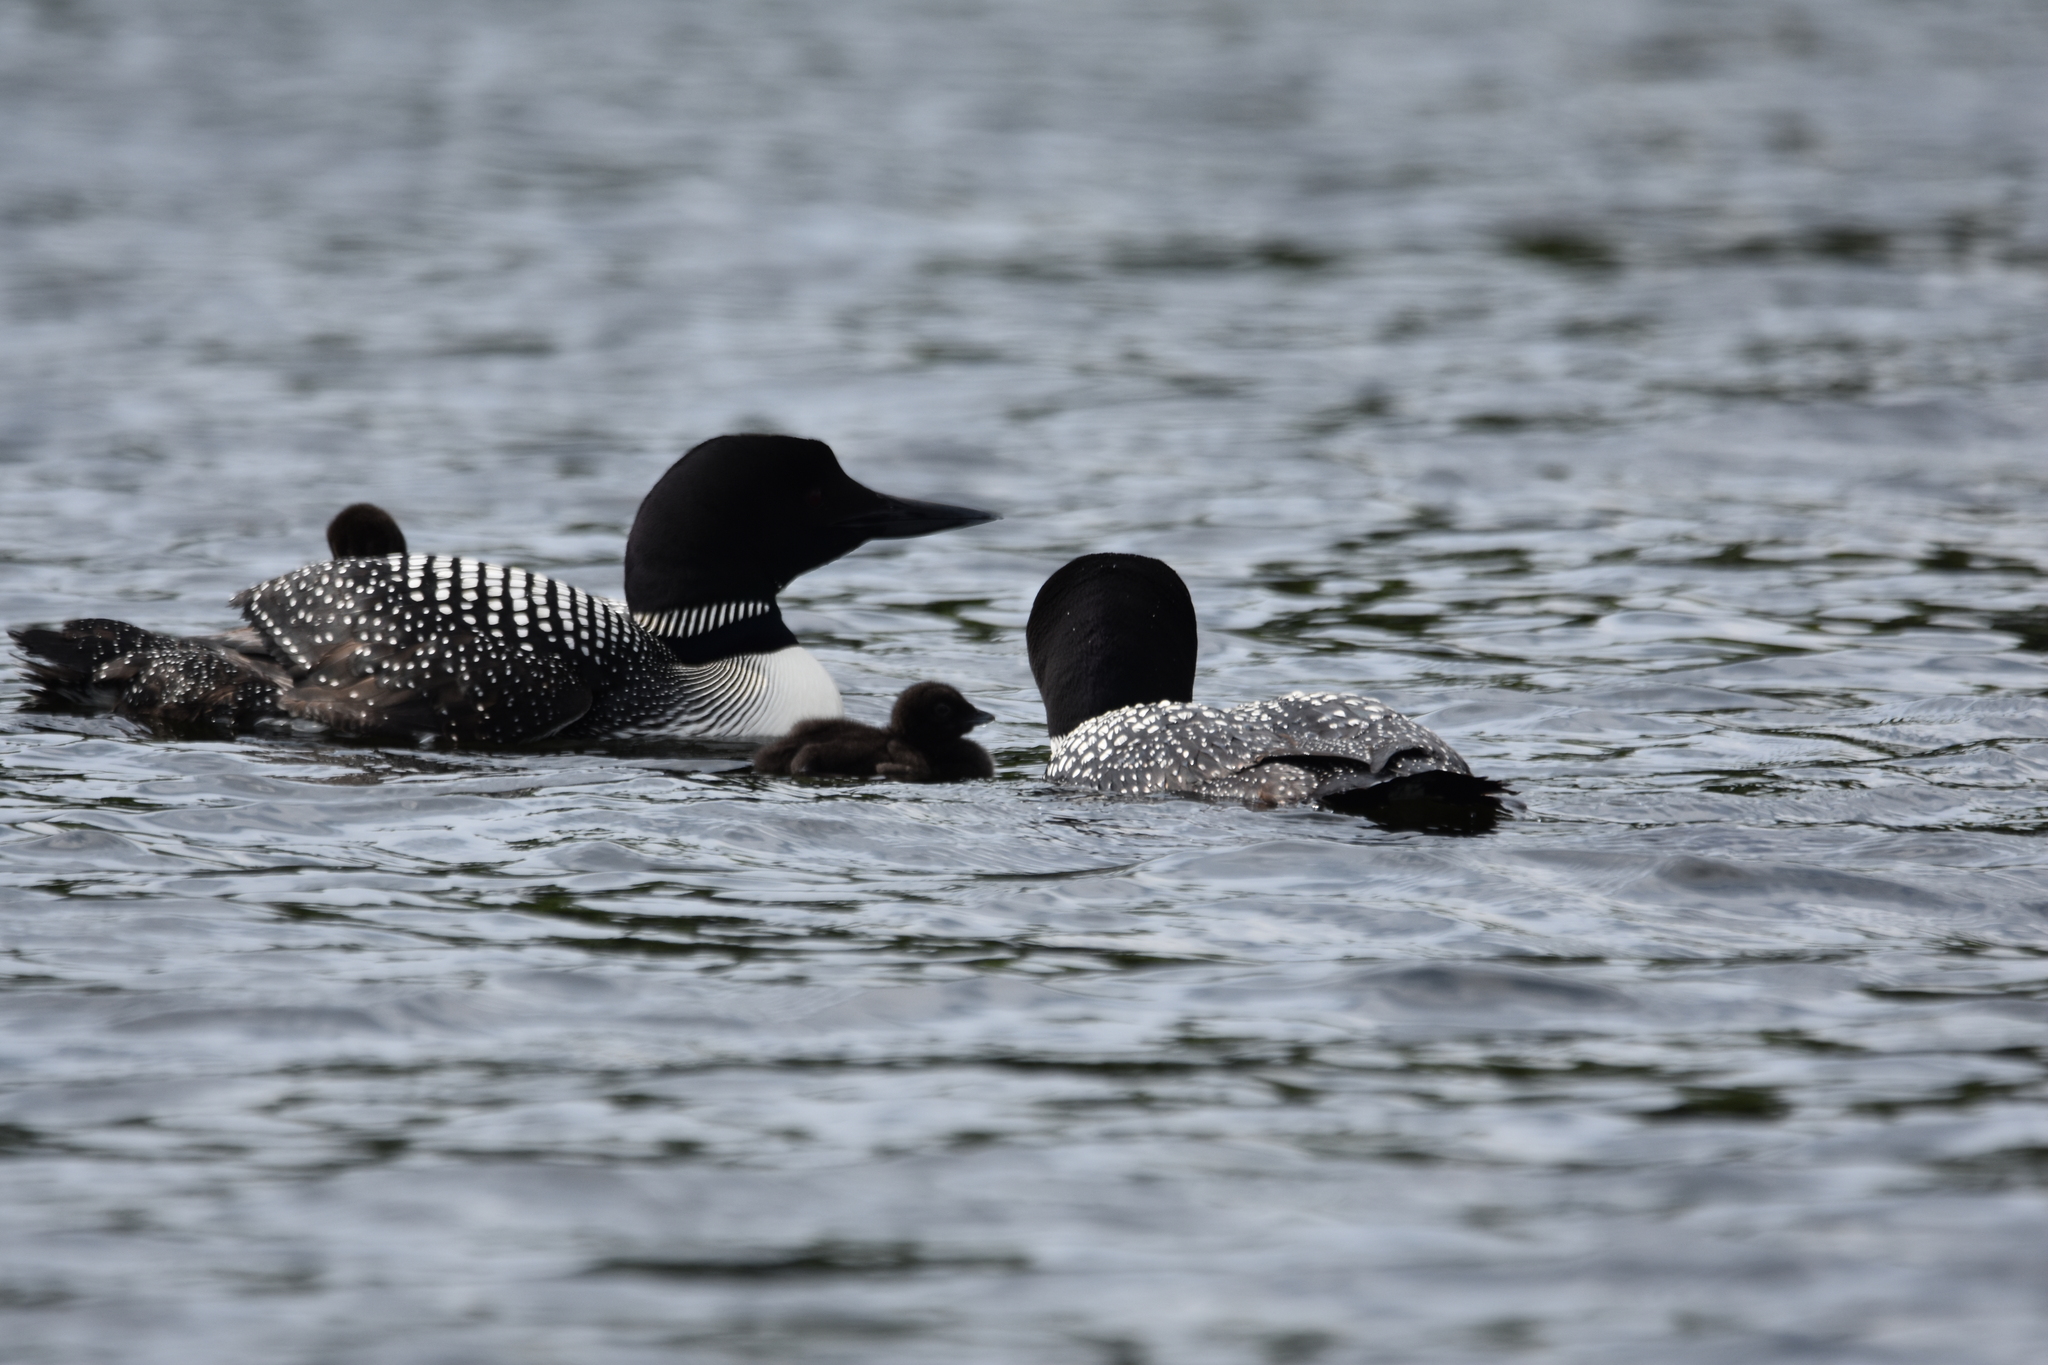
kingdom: Animalia
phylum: Chordata
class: Aves
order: Gaviiformes
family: Gaviidae
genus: Gavia
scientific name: Gavia immer
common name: Common loon
